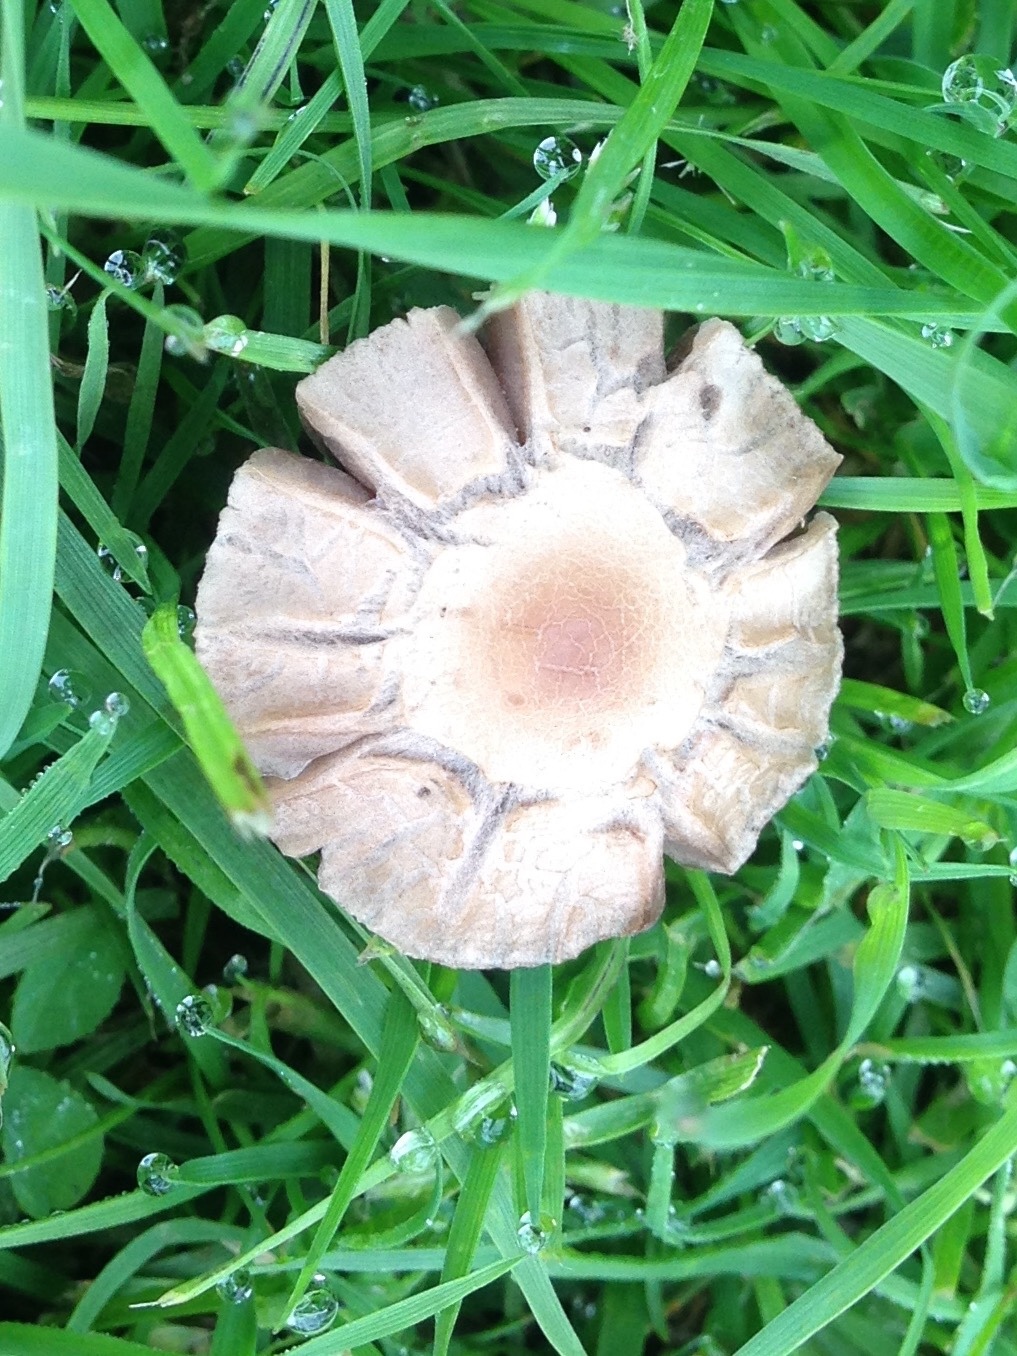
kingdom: Fungi
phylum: Basidiomycota
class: Agaricomycetes
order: Agaricales
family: Bolbitiaceae
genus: Panaeolina
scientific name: Panaeolina foenisecii
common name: Brown hay cap
